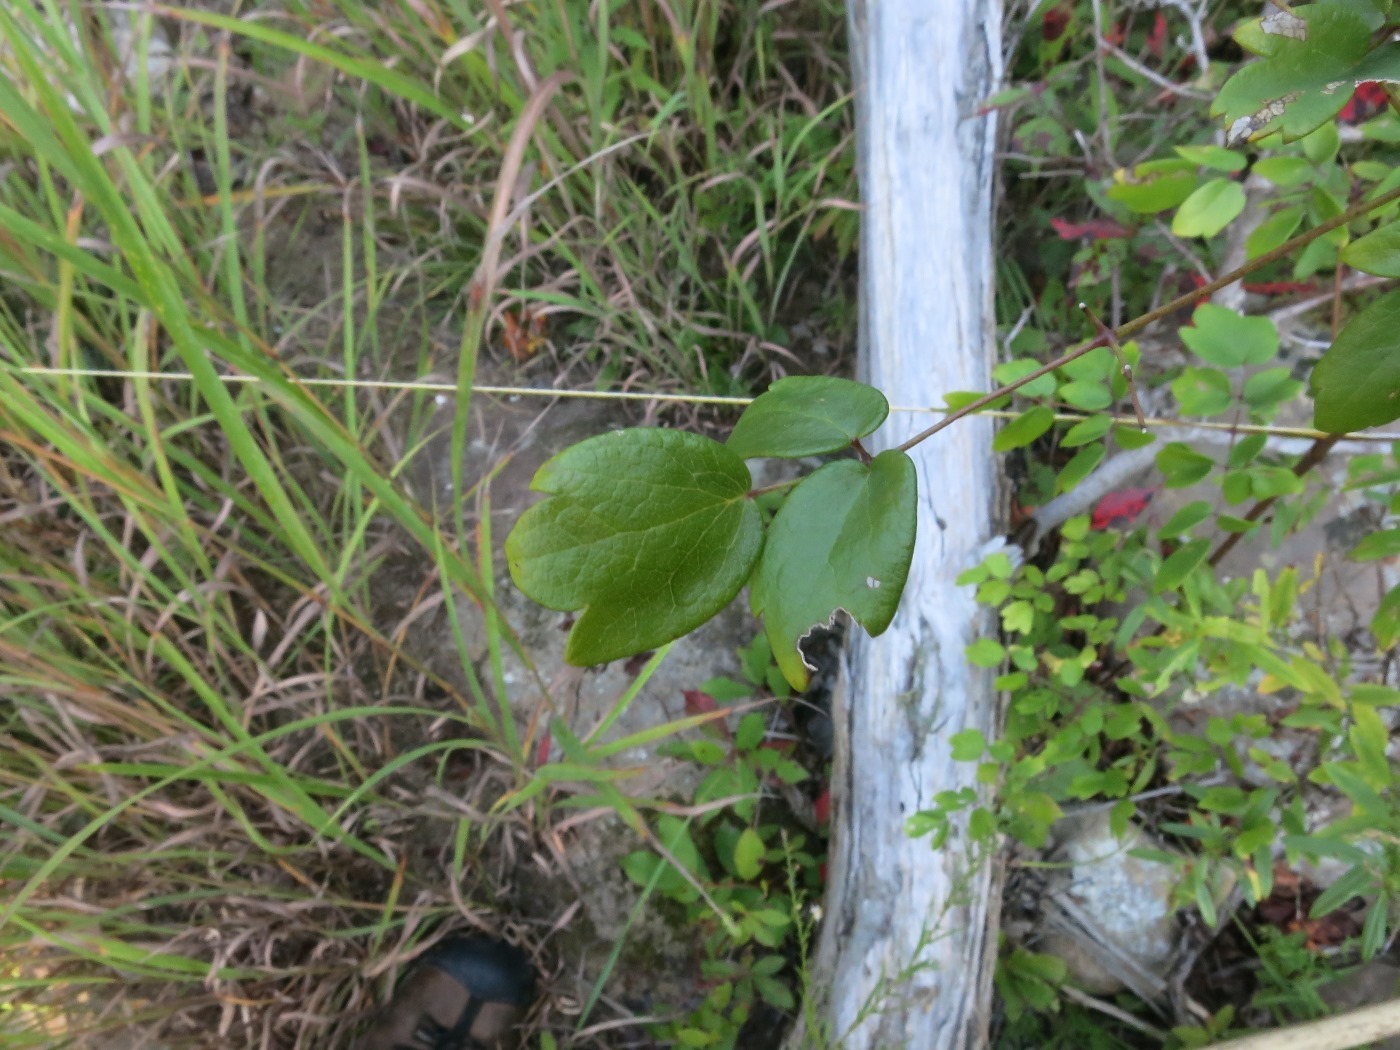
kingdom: Plantae
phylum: Tracheophyta
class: Magnoliopsida
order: Ranunculales
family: Ranunculaceae
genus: Thalictrum
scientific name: Thalictrum revolutum
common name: Waxy meadow-rue
